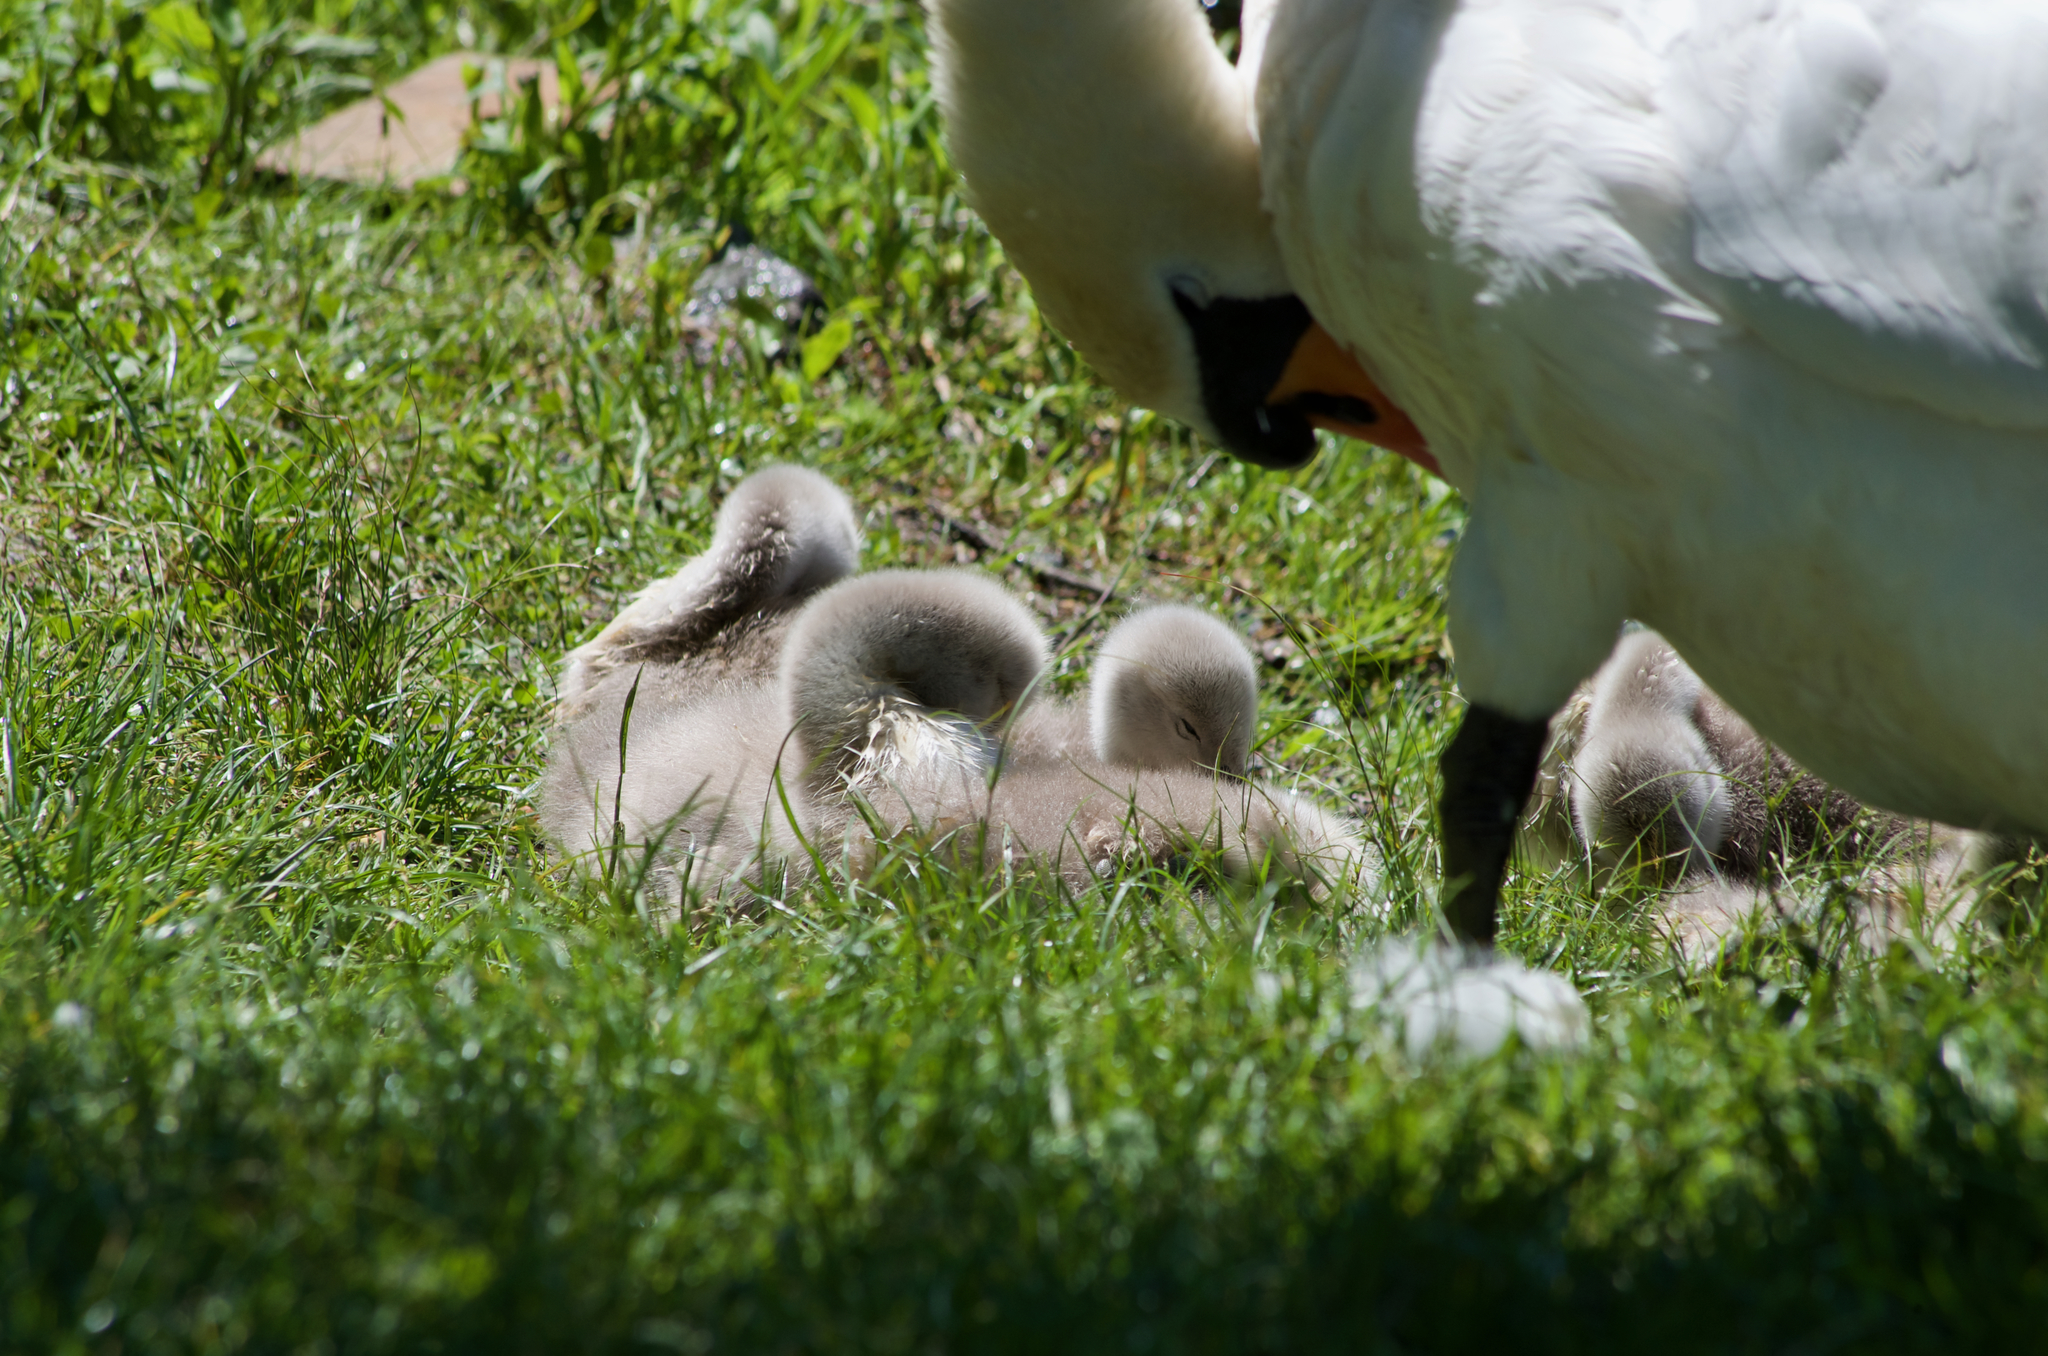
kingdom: Animalia
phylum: Chordata
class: Aves
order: Anseriformes
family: Anatidae
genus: Cygnus
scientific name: Cygnus olor
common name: Mute swan
